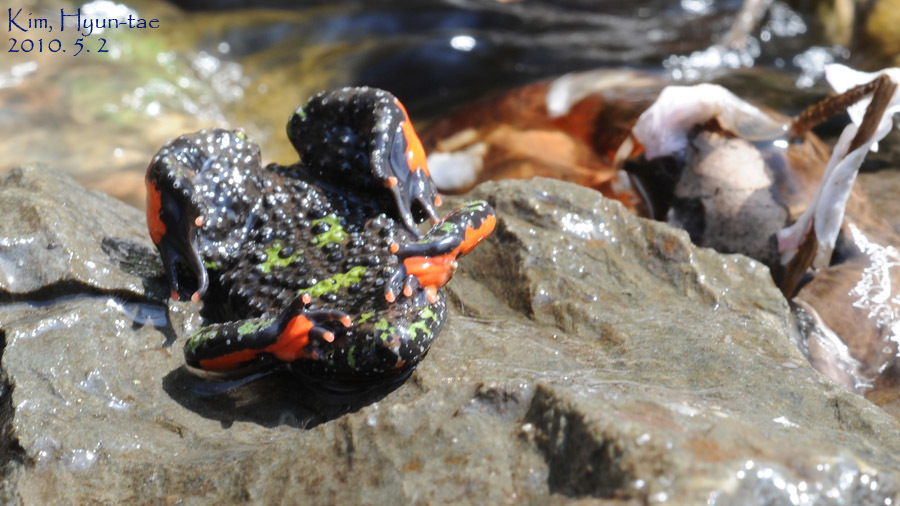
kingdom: Animalia
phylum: Chordata
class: Amphibia
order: Anura
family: Bombinatoridae
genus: Bombina
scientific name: Bombina orientalis
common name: Oriental firebelly toad
